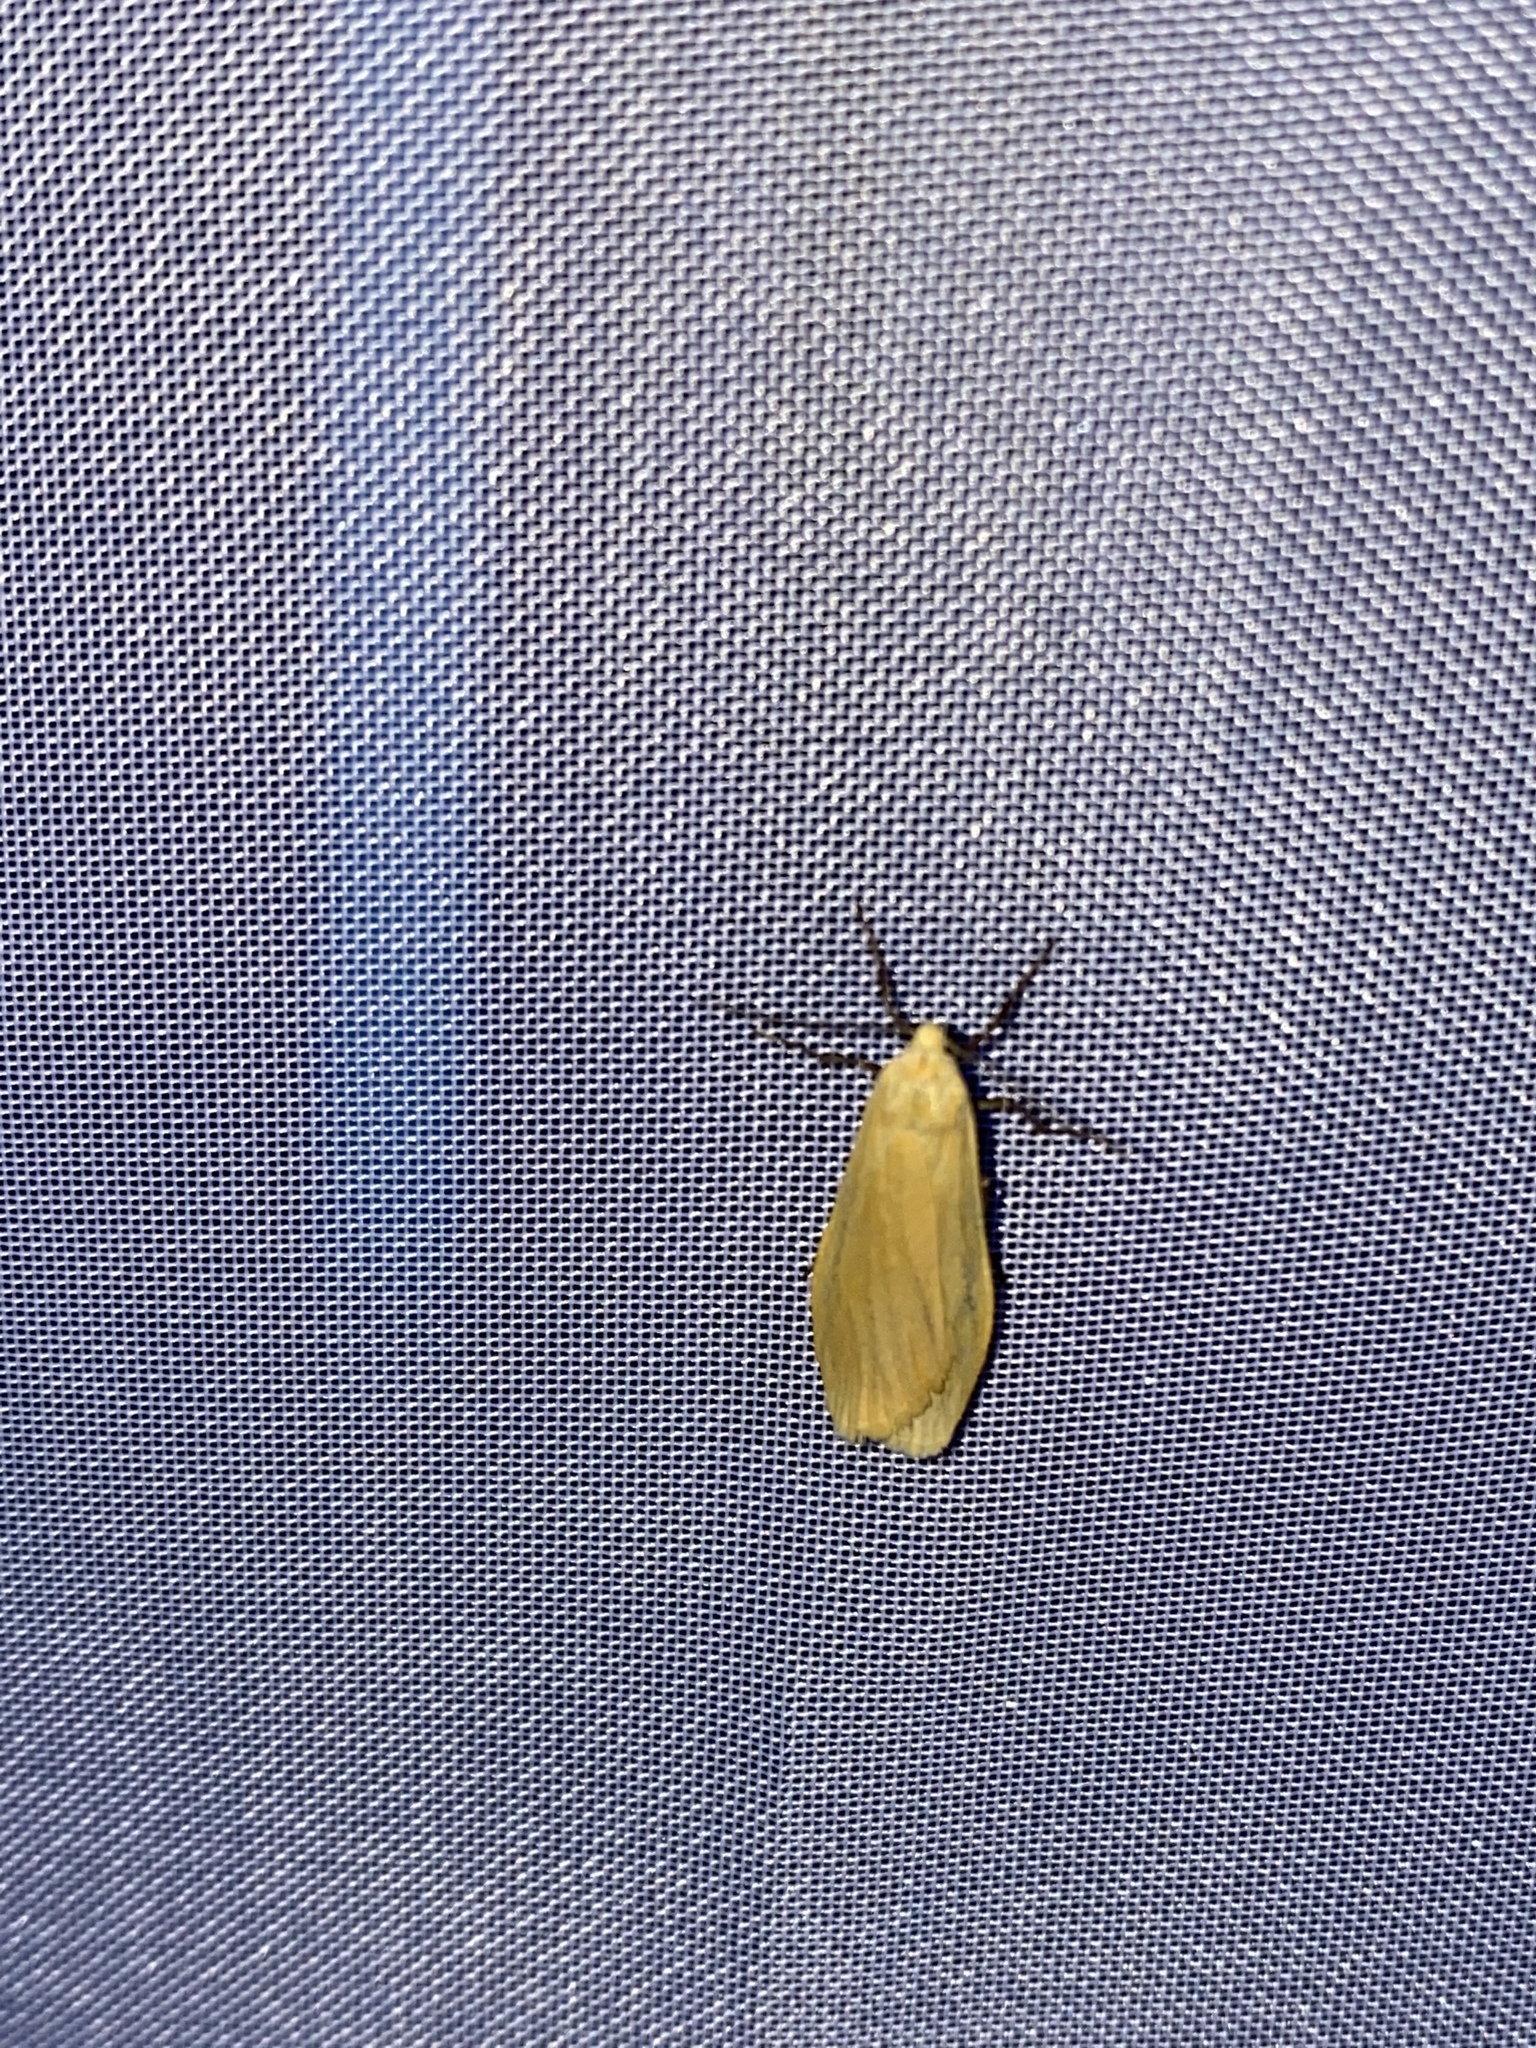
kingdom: Animalia
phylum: Arthropoda
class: Insecta
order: Lepidoptera
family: Erebidae
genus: Wittia
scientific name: Wittia sororcula
